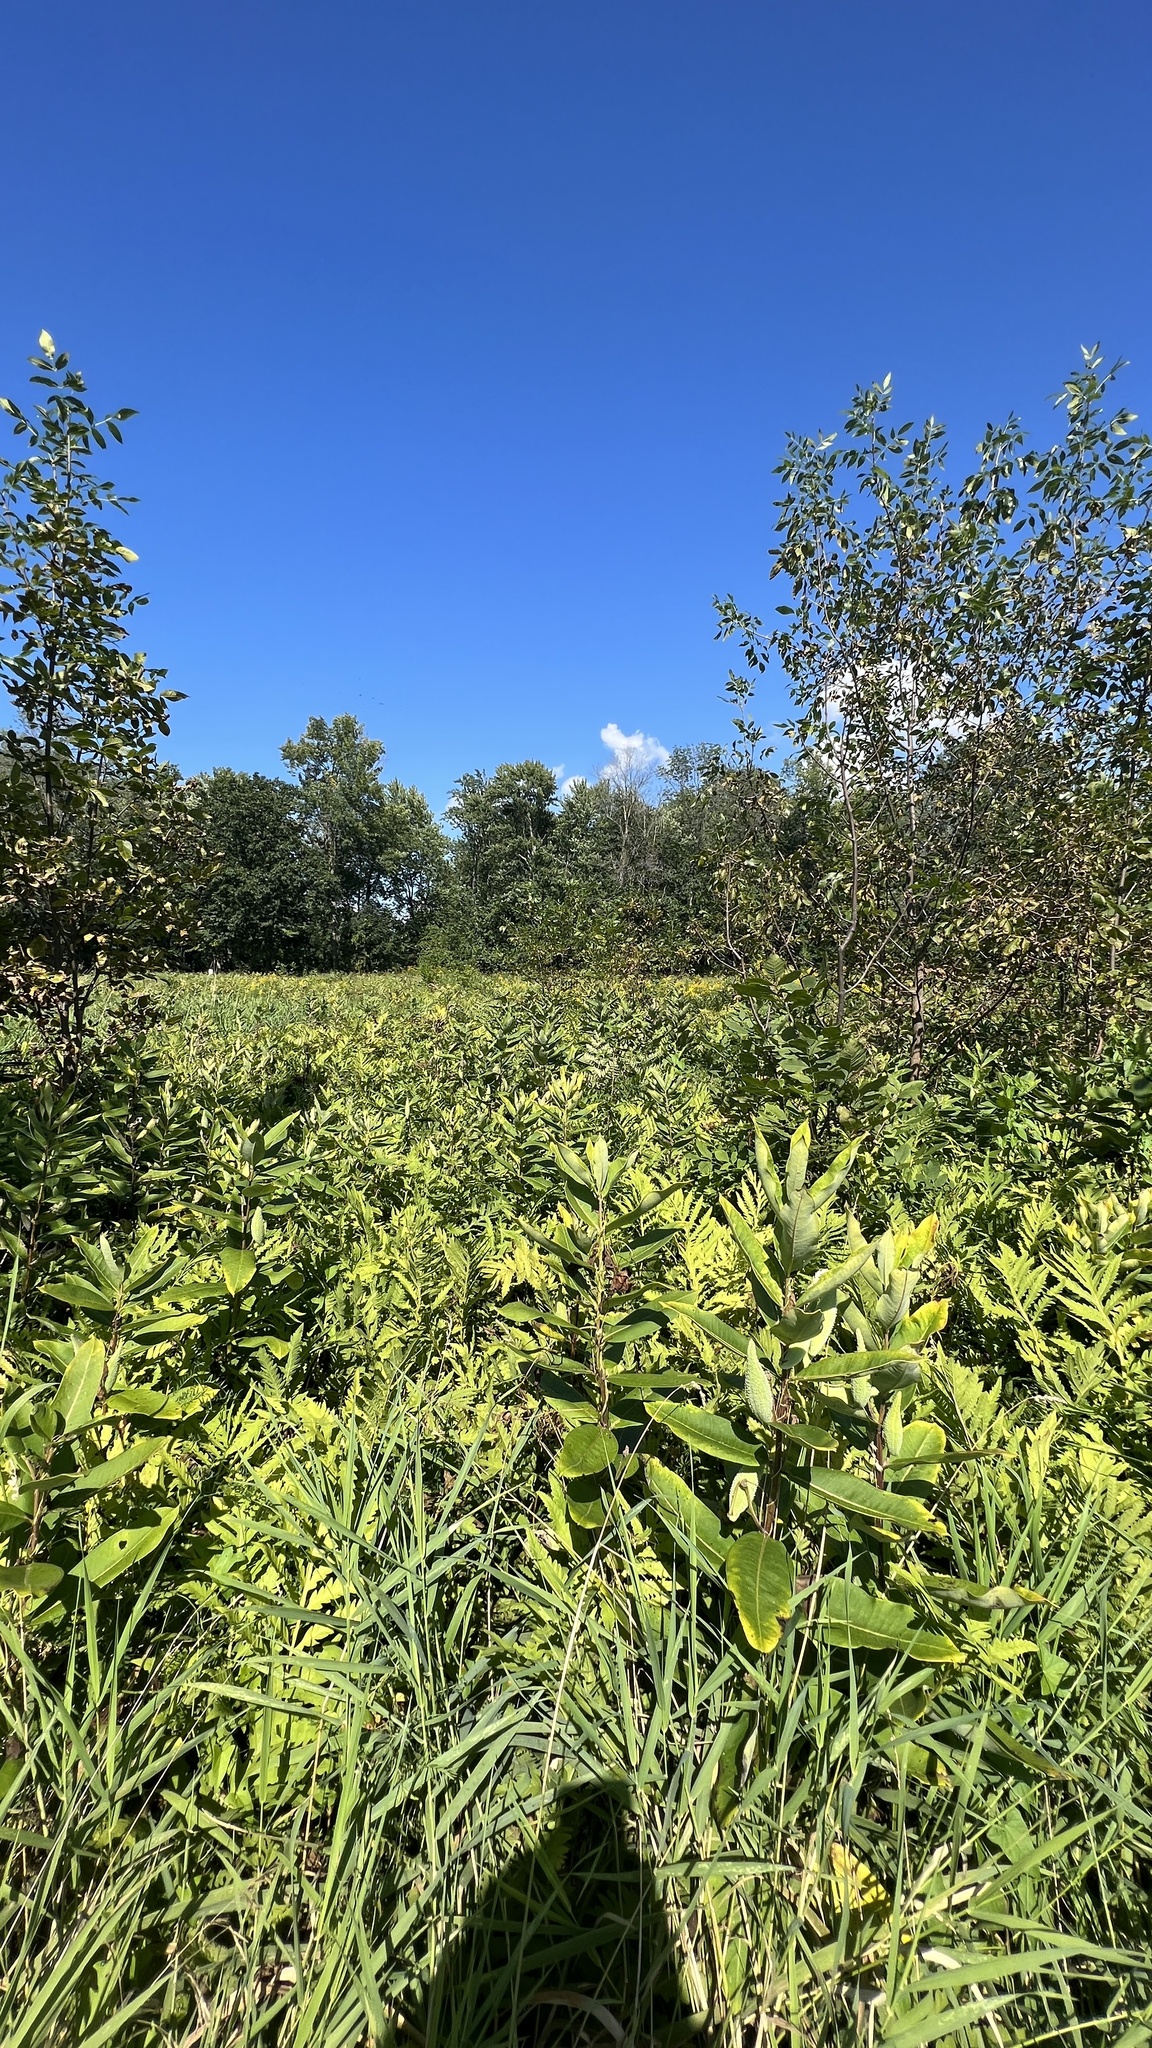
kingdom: Plantae
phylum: Tracheophyta
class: Magnoliopsida
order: Gentianales
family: Apocynaceae
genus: Asclepias
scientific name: Asclepias syriaca
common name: Common milkweed
